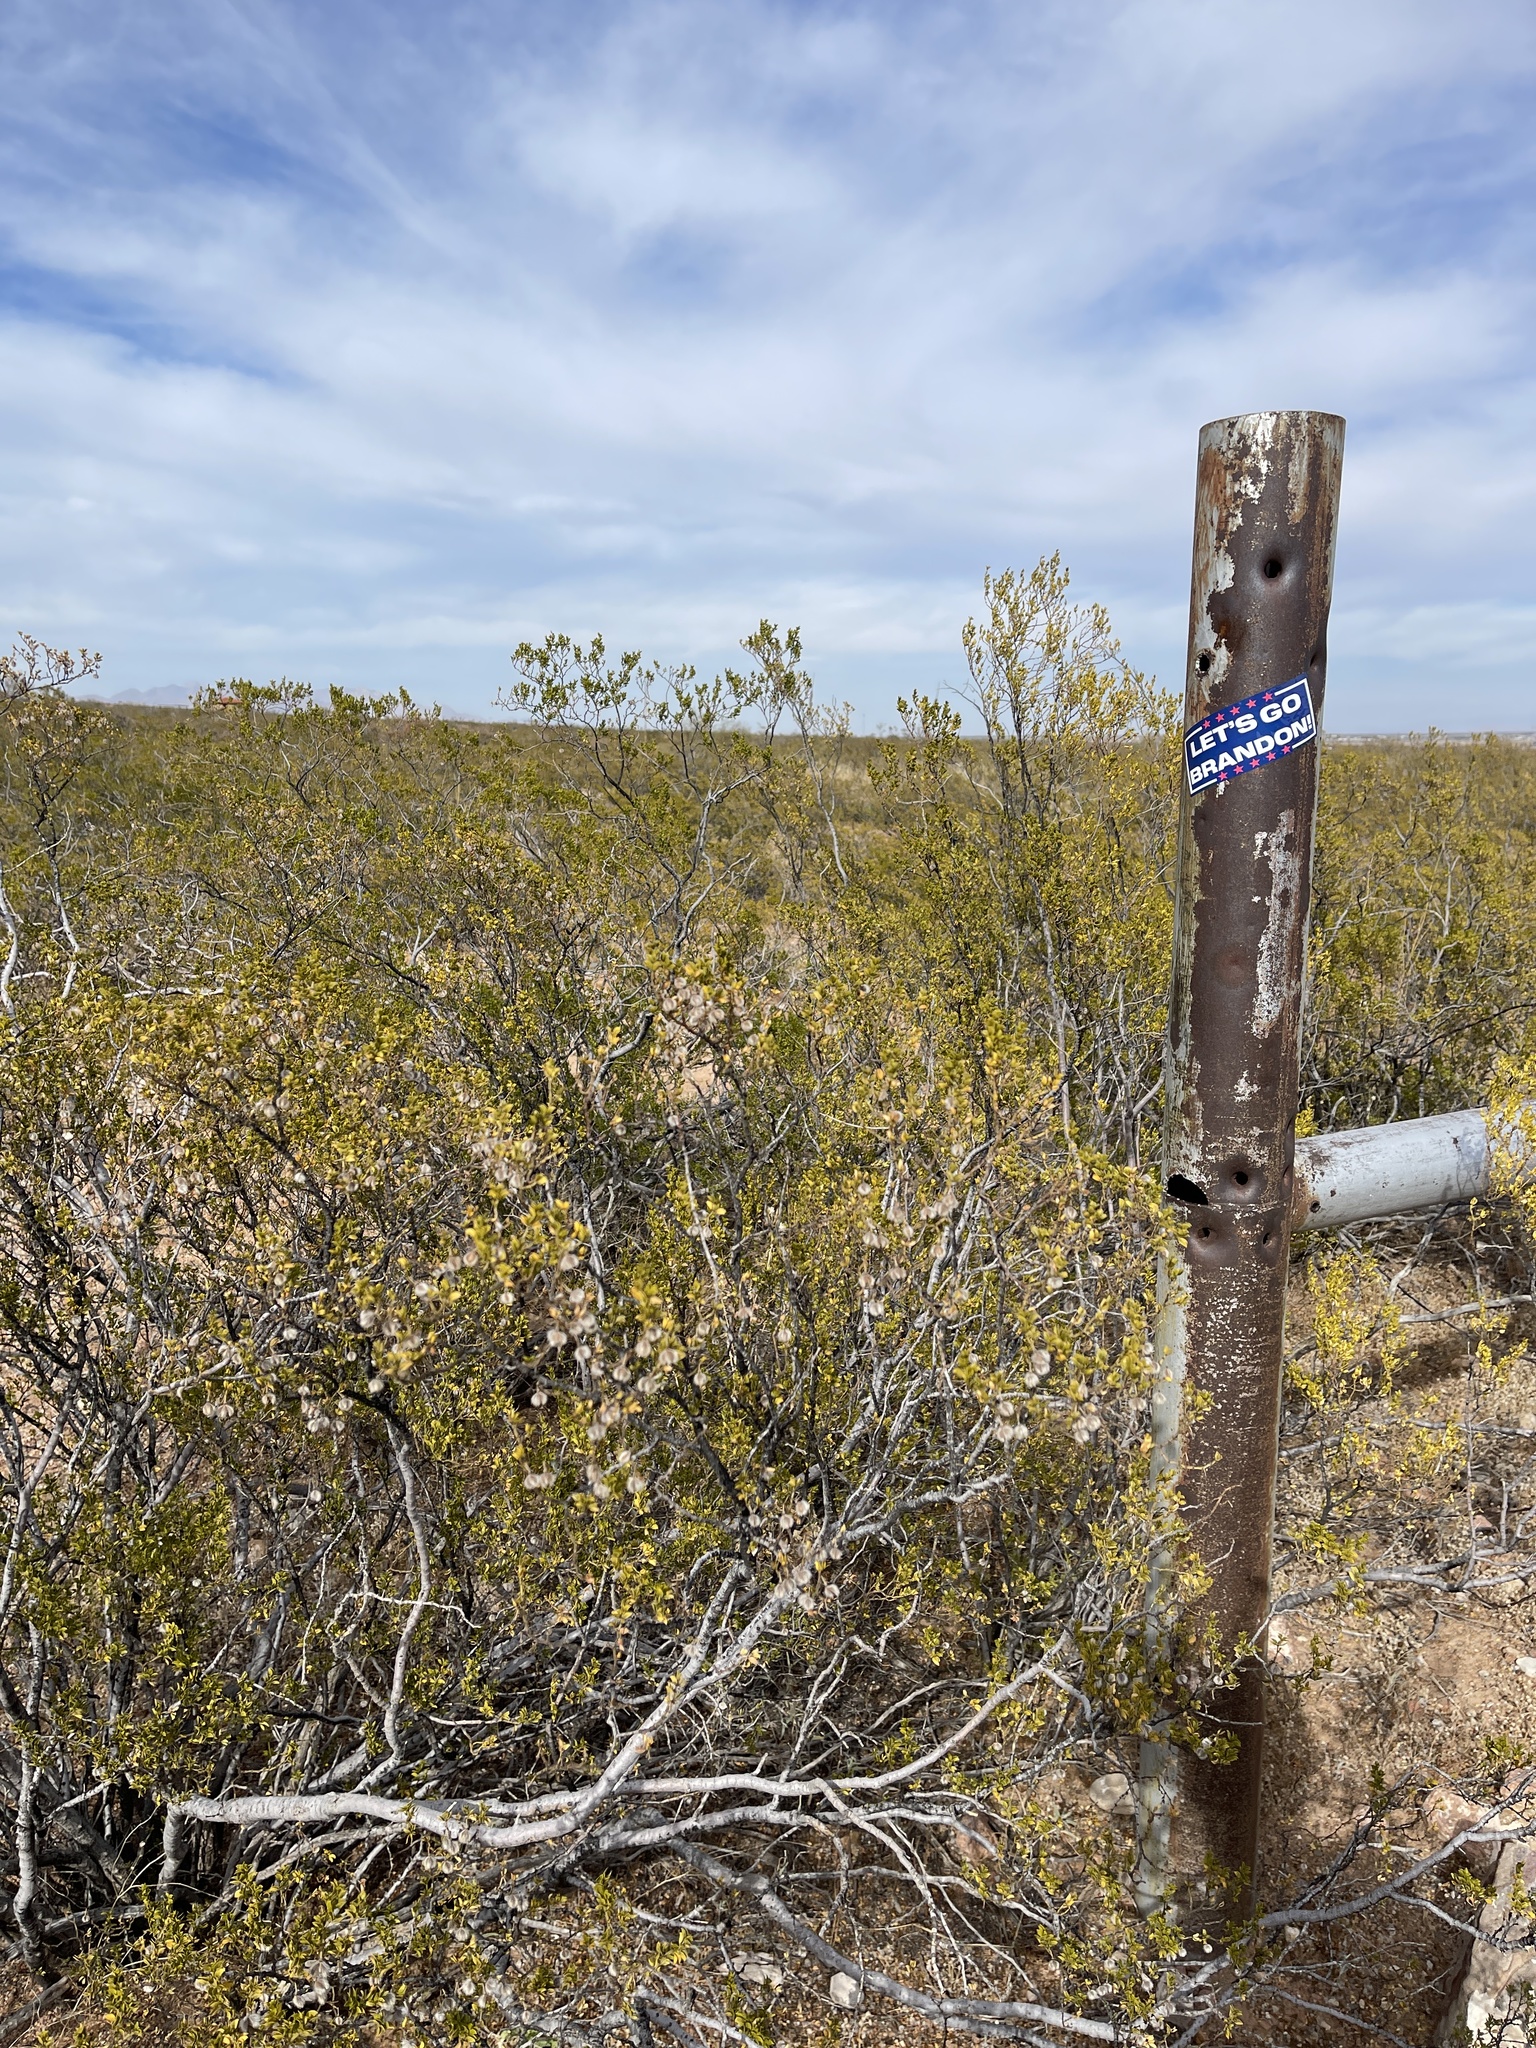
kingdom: Plantae
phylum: Tracheophyta
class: Magnoliopsida
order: Zygophyllales
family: Zygophyllaceae
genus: Larrea
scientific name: Larrea tridentata
